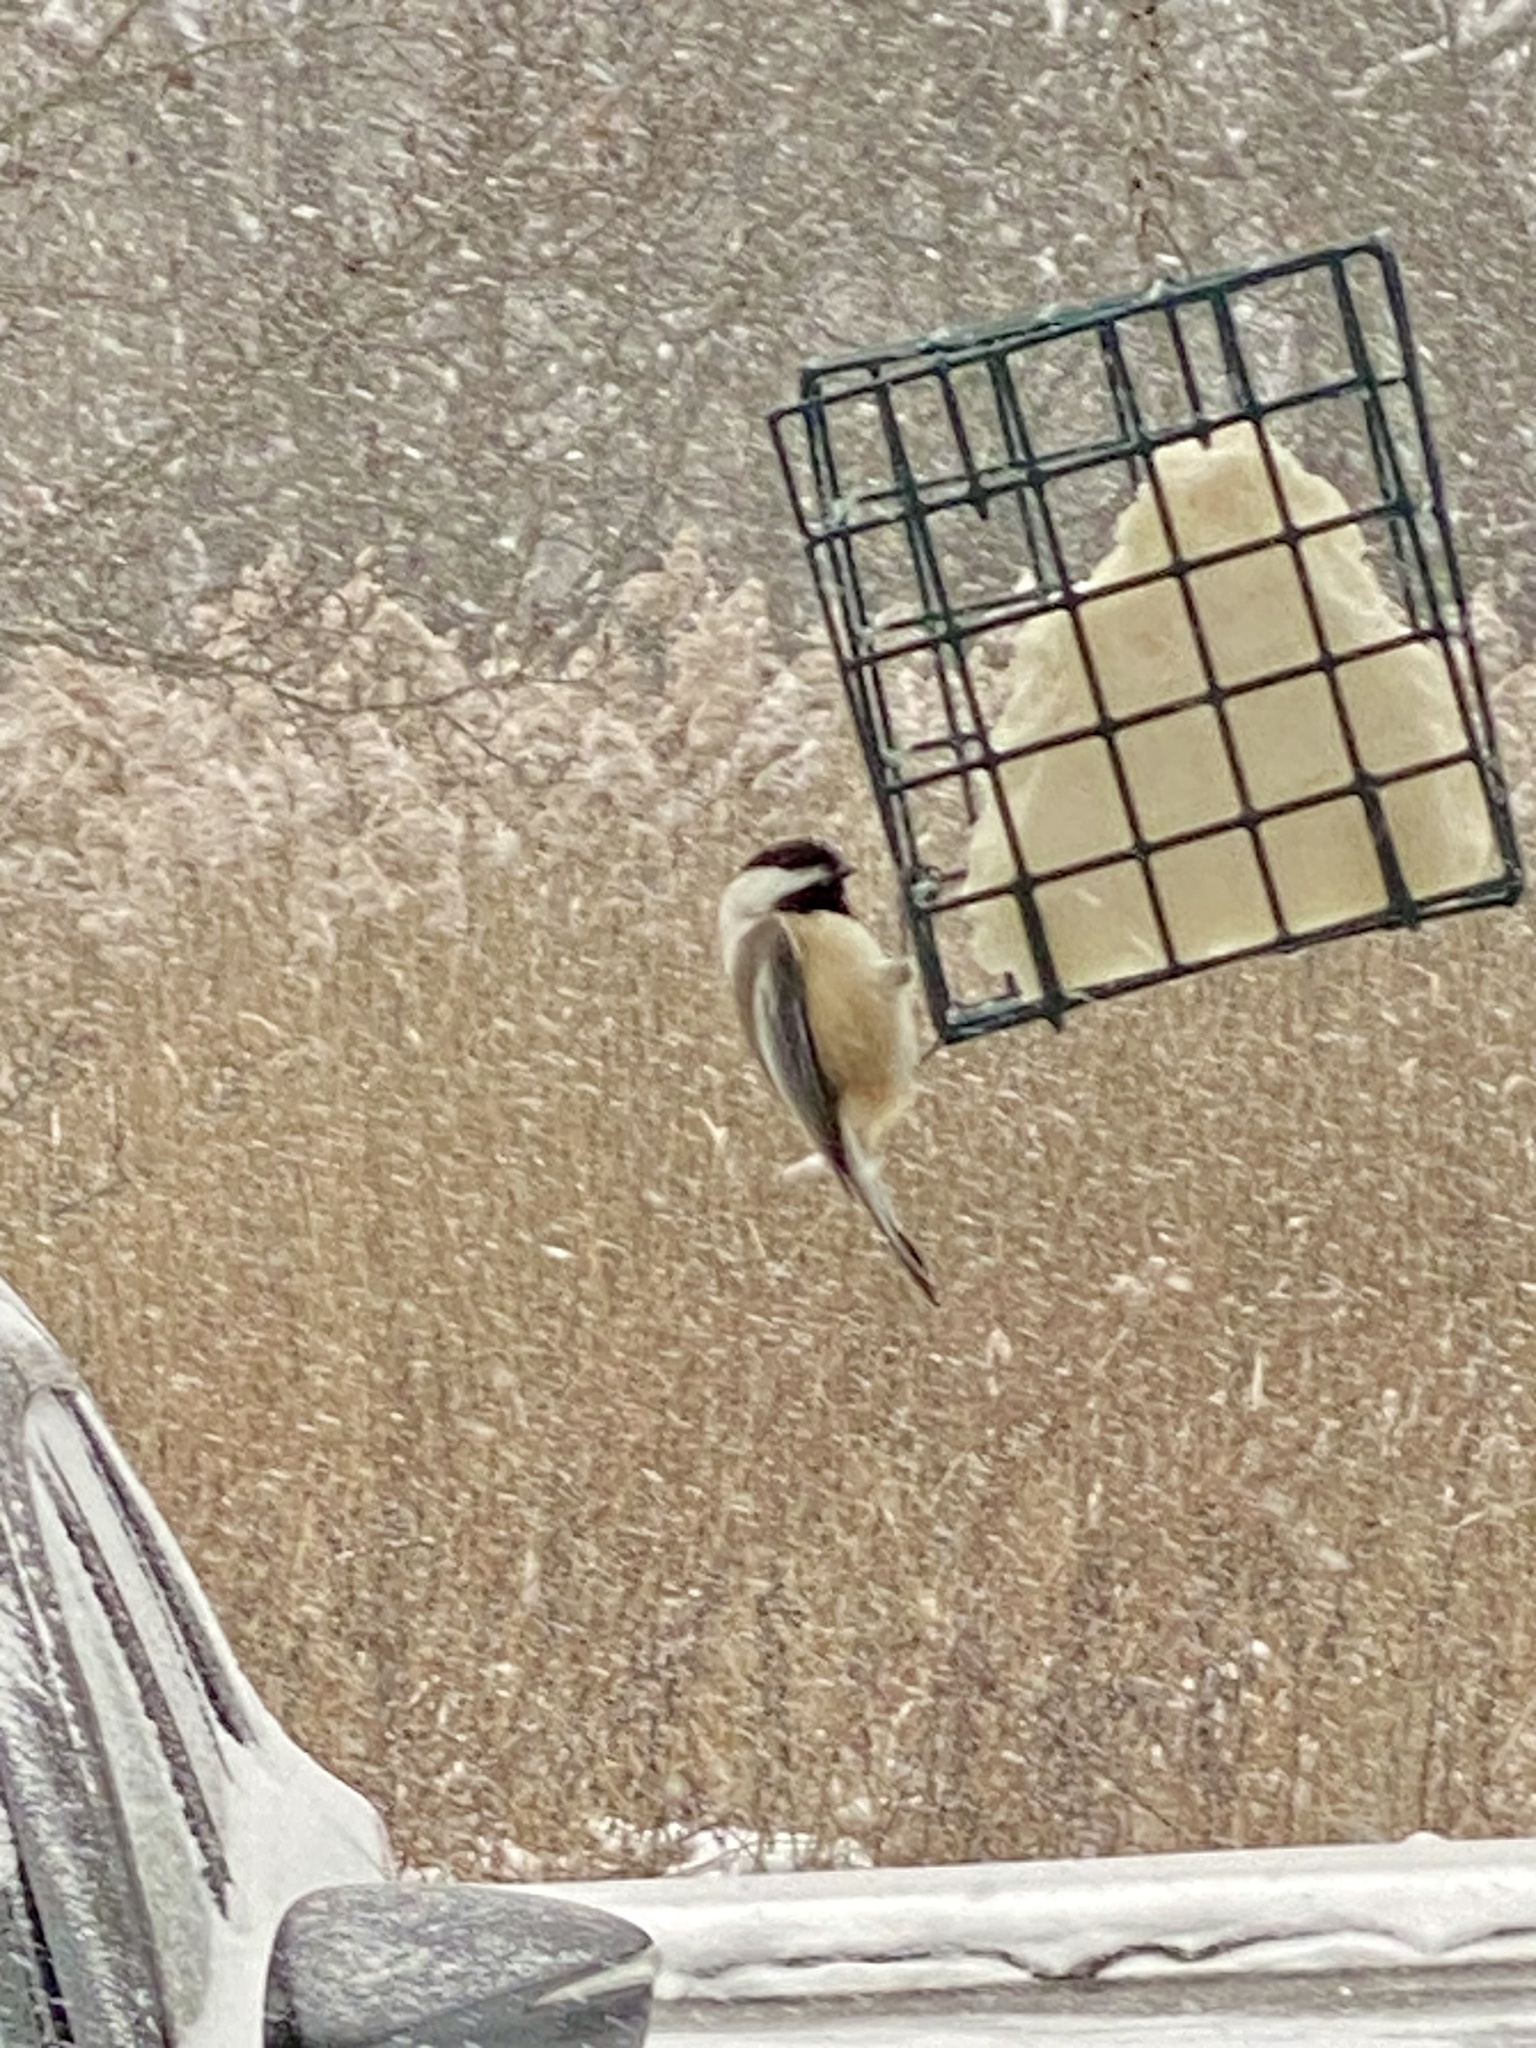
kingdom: Animalia
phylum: Chordata
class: Aves
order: Passeriformes
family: Paridae
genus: Poecile
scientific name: Poecile atricapillus
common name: Black-capped chickadee
